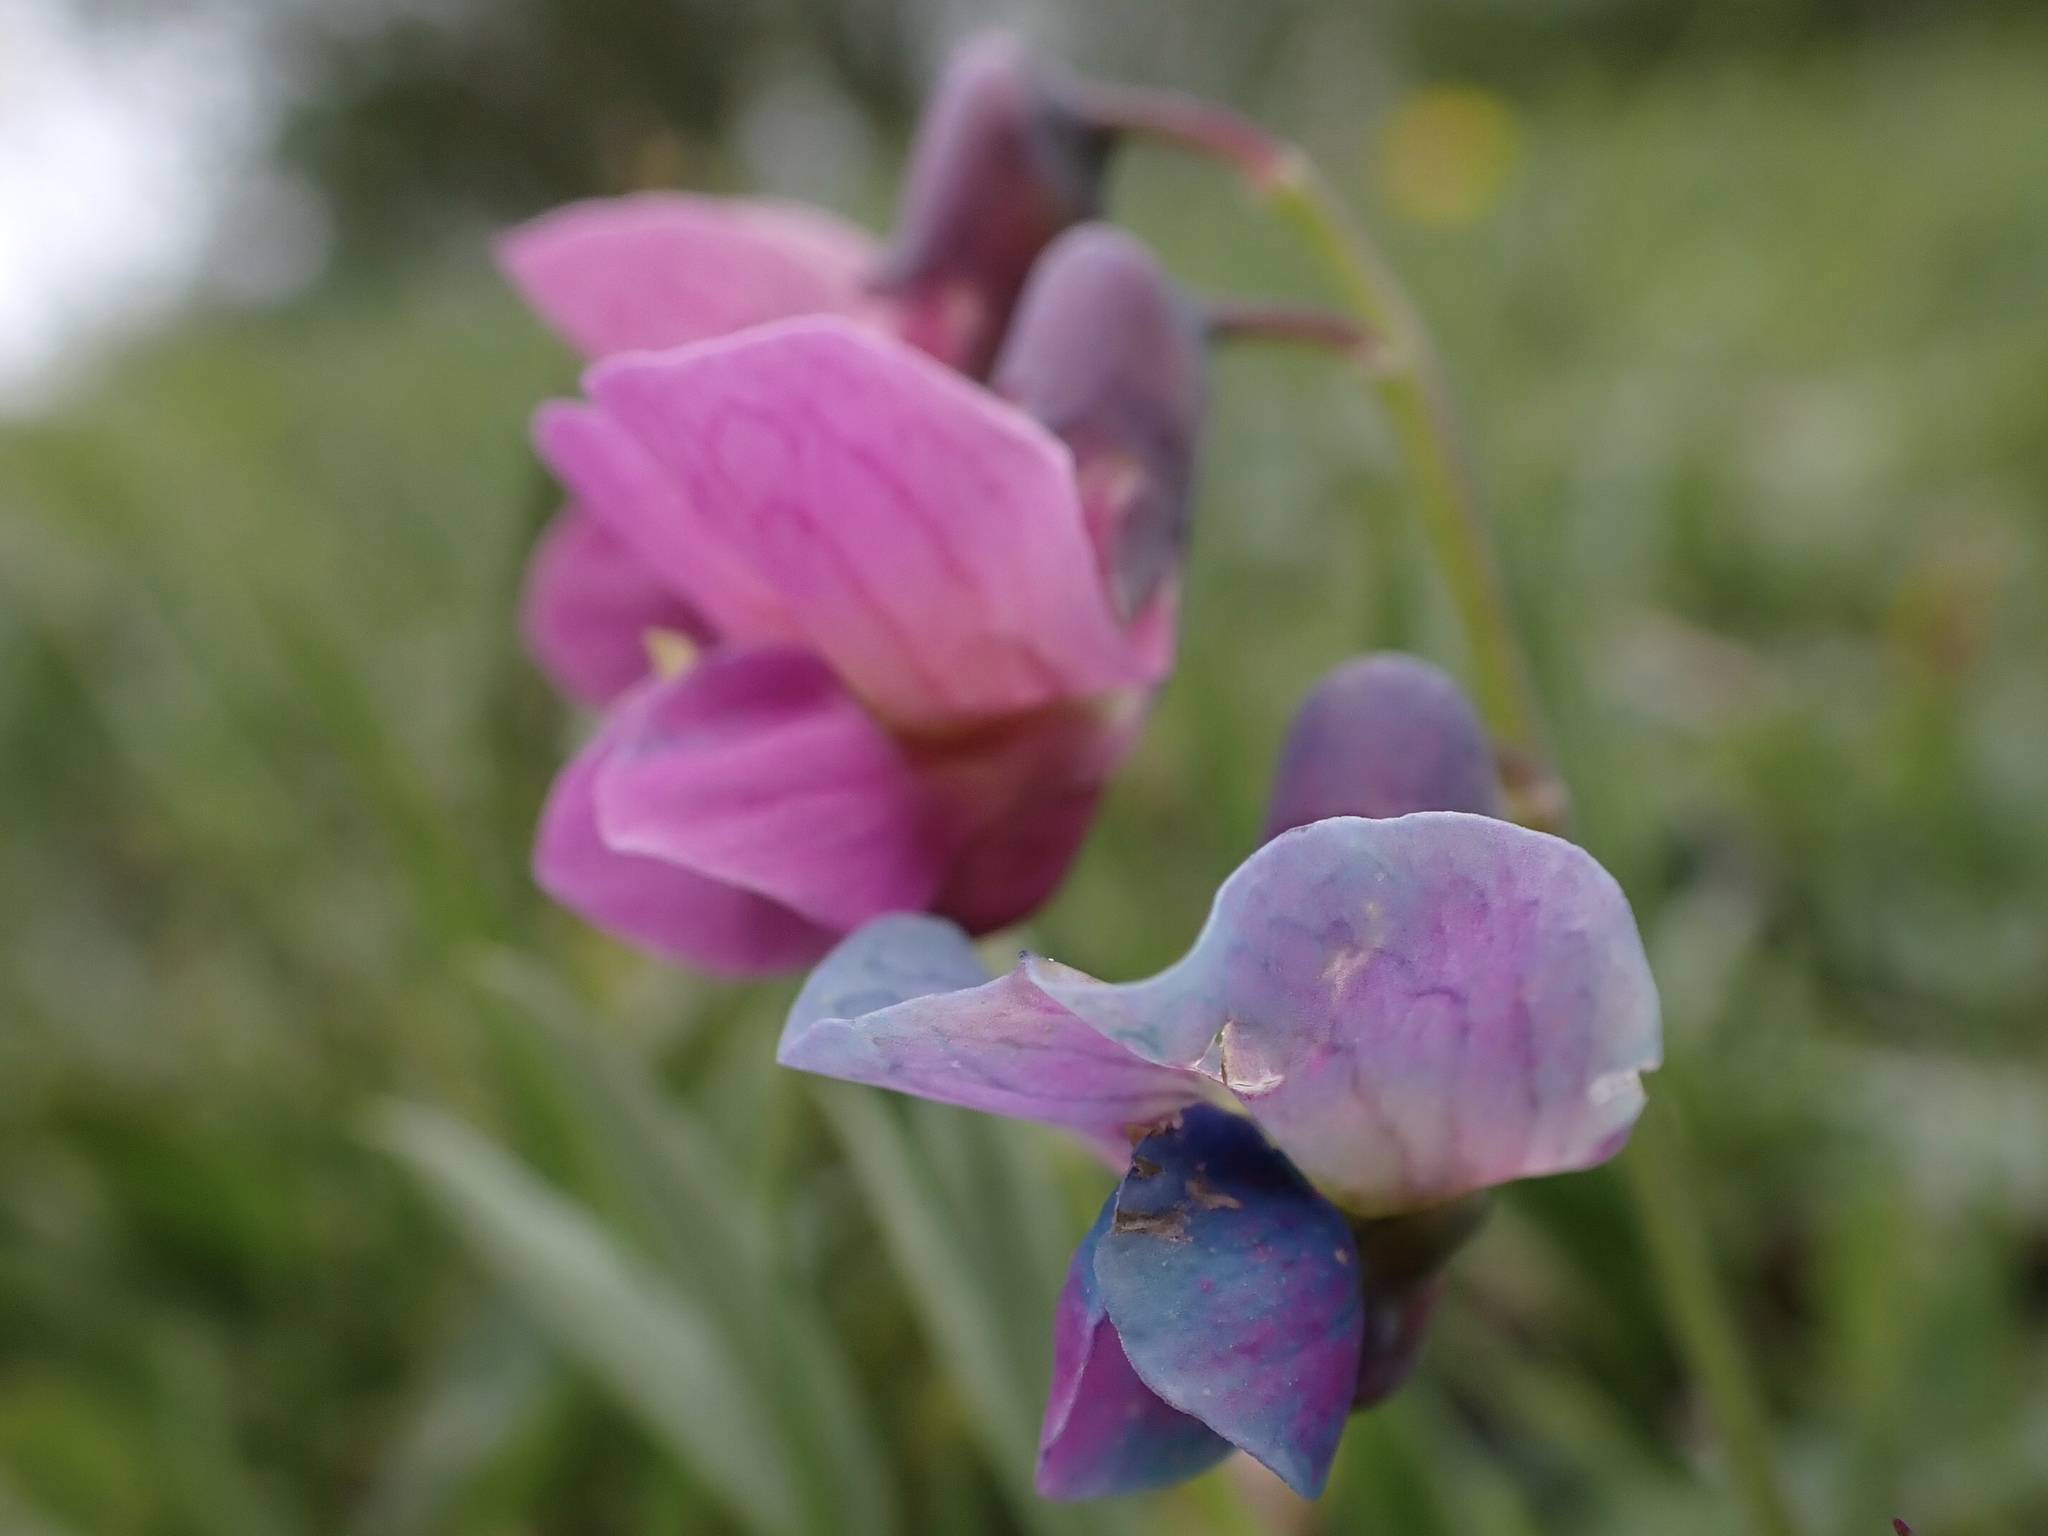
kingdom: Plantae
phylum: Tracheophyta
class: Magnoliopsida
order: Fabales
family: Fabaceae
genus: Lathyrus
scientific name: Lathyrus linifolius
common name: Bitter-vetch
